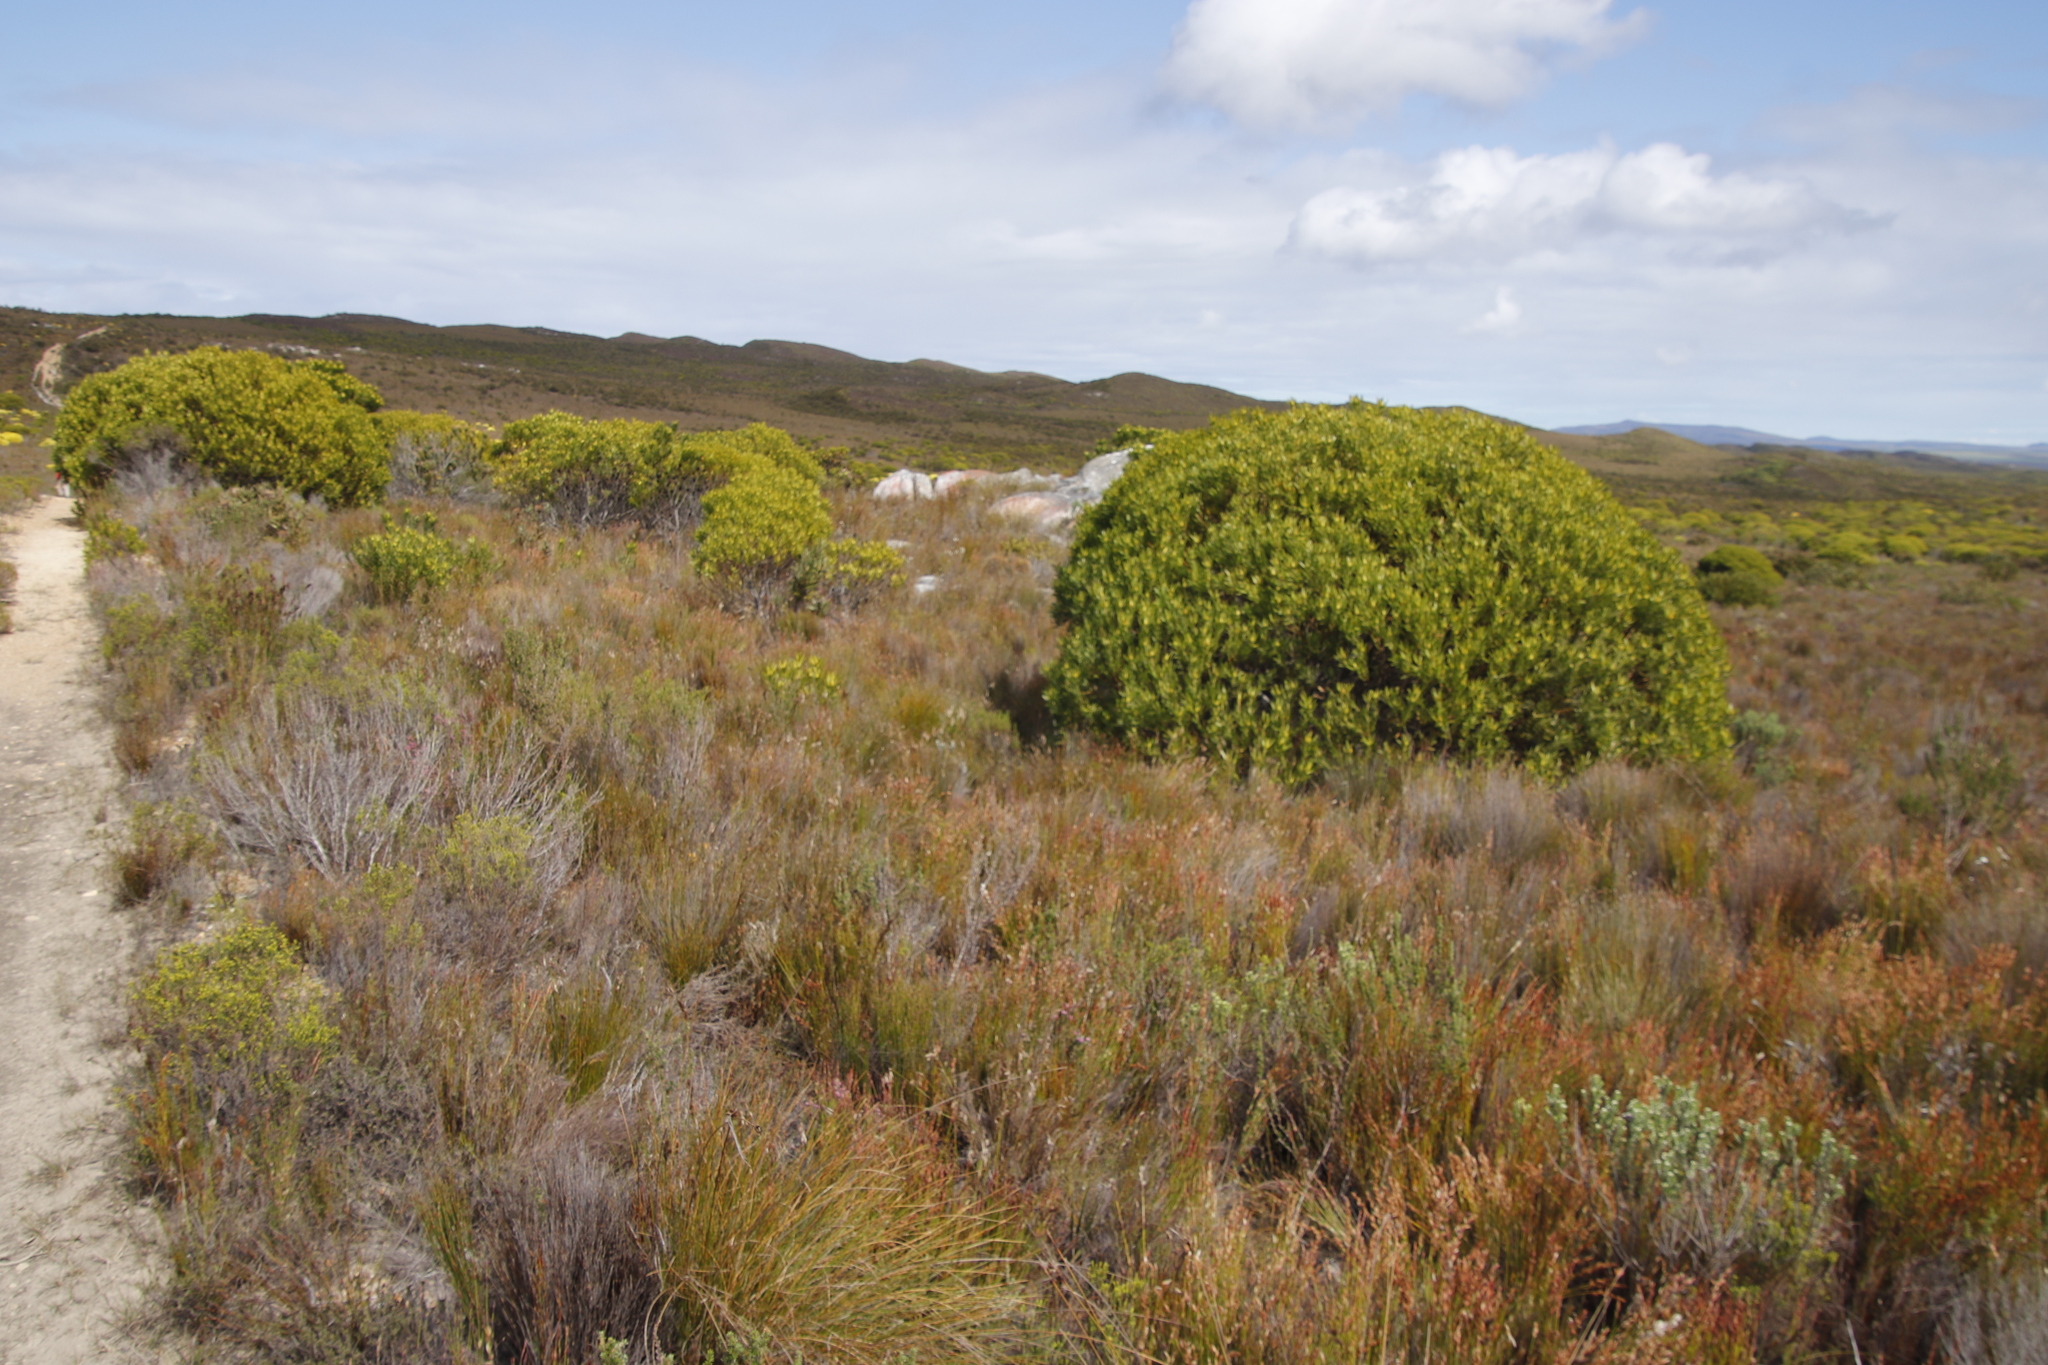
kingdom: Plantae
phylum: Tracheophyta
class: Magnoliopsida
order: Proteales
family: Proteaceae
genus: Leucadendron
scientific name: Leucadendron laureolum
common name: Golden sunshinebush
